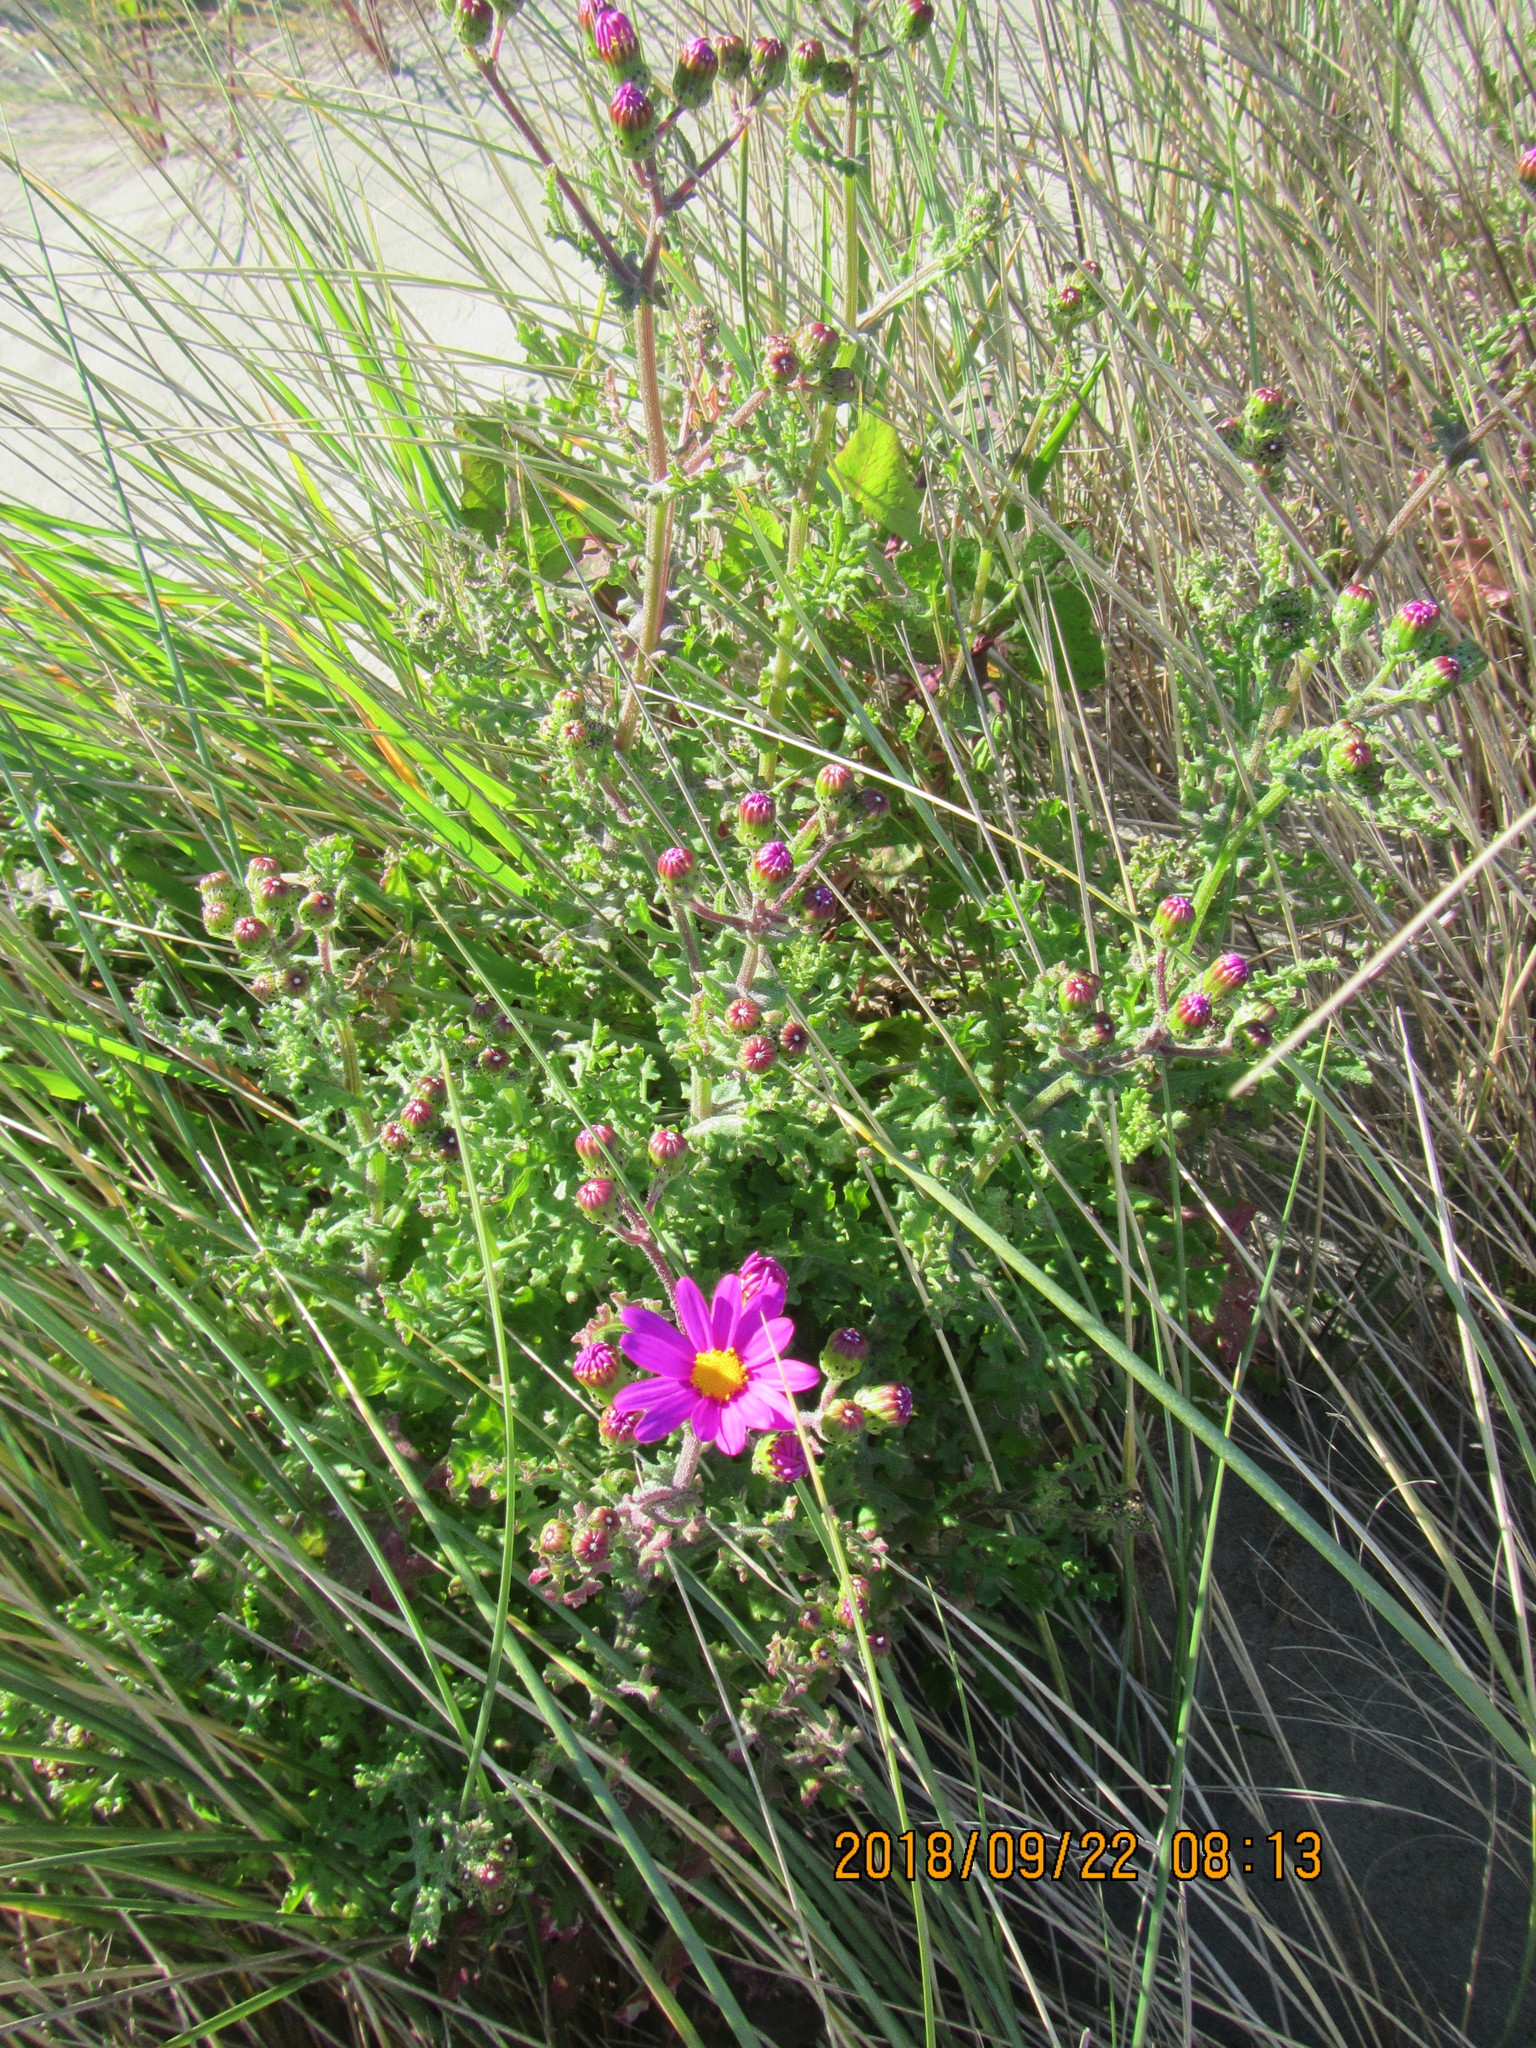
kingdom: Plantae
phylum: Tracheophyta
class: Magnoliopsida
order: Asterales
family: Asteraceae
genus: Senecio
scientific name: Senecio elegans
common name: Purple groundsel
